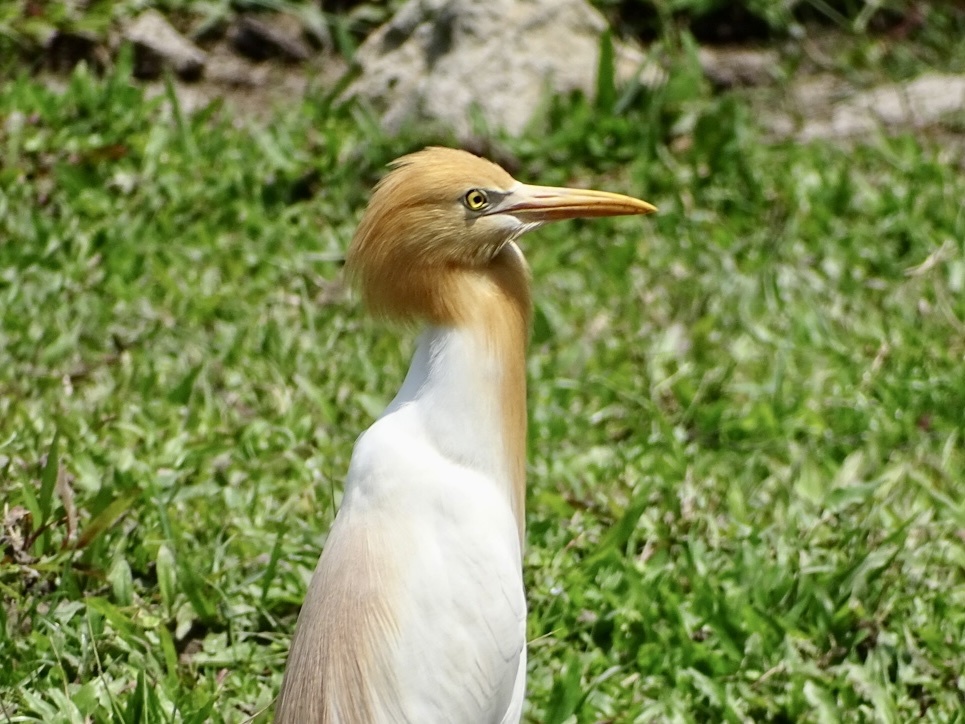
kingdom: Animalia
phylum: Chordata
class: Aves
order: Pelecaniformes
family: Ardeidae
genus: Bubulcus
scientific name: Bubulcus coromandus
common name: Eastern cattle egret
